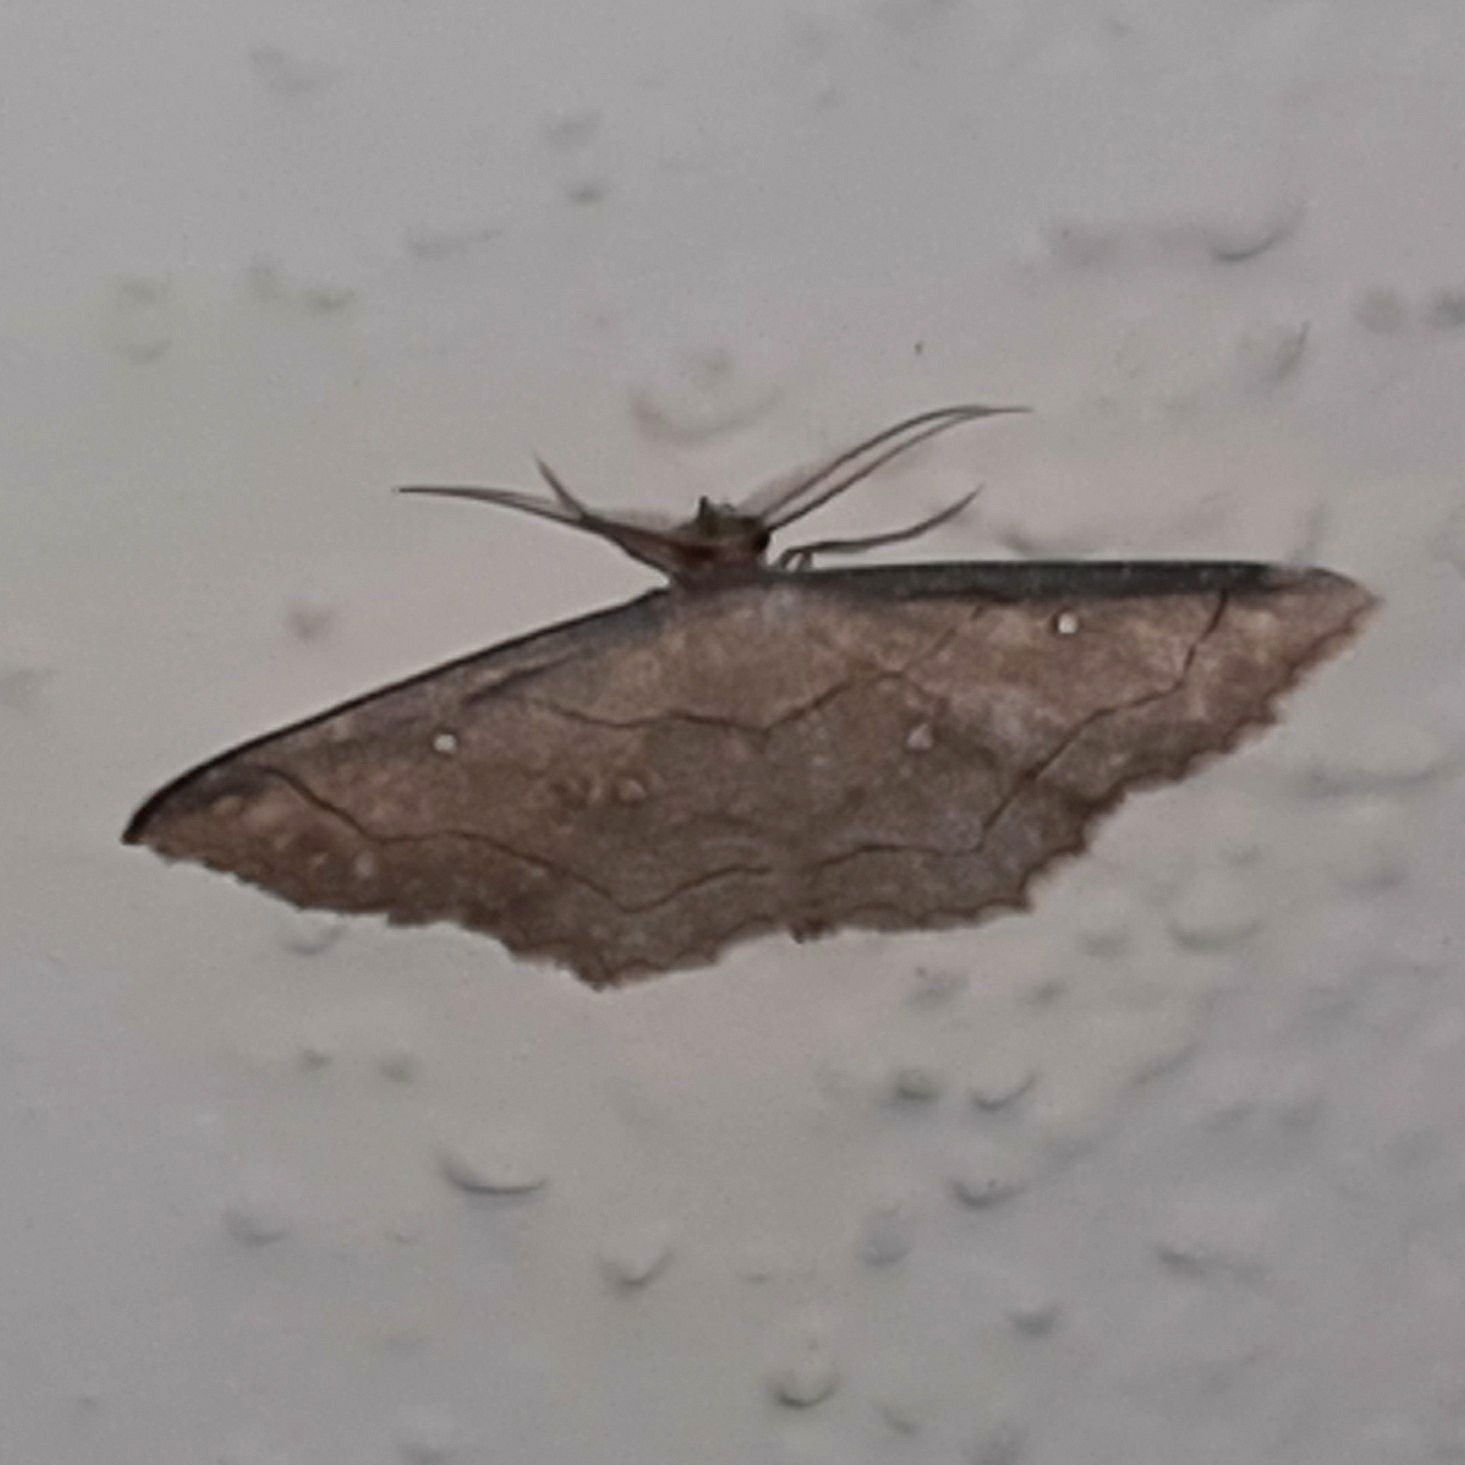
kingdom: Animalia
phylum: Arthropoda
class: Insecta
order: Lepidoptera
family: Geometridae
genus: Cyclophora
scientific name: Cyclophora coecaria
